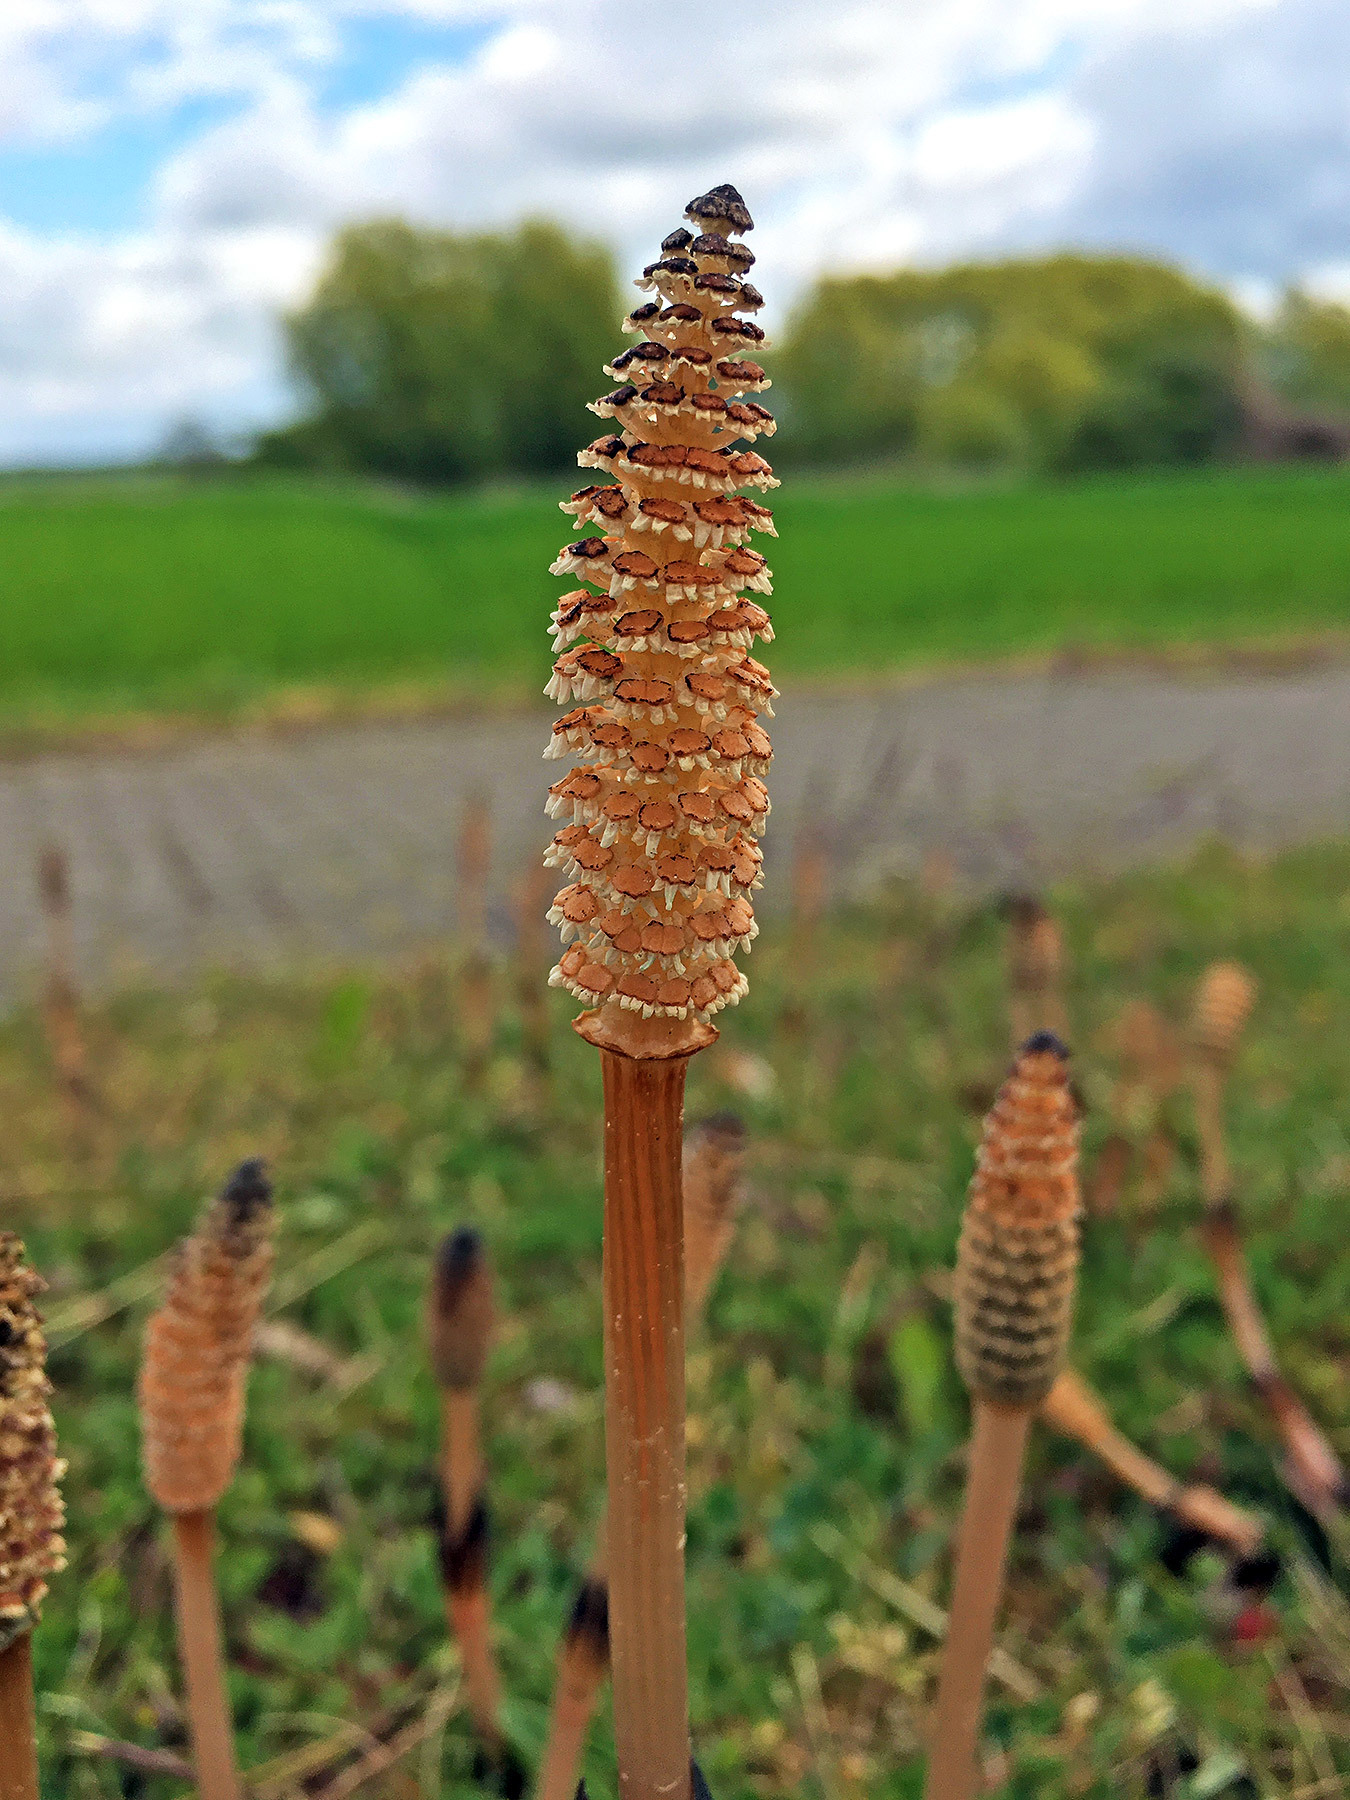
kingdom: Plantae
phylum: Tracheophyta
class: Polypodiopsida
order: Equisetales
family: Equisetaceae
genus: Equisetum
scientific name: Equisetum arvense
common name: Field horsetail
